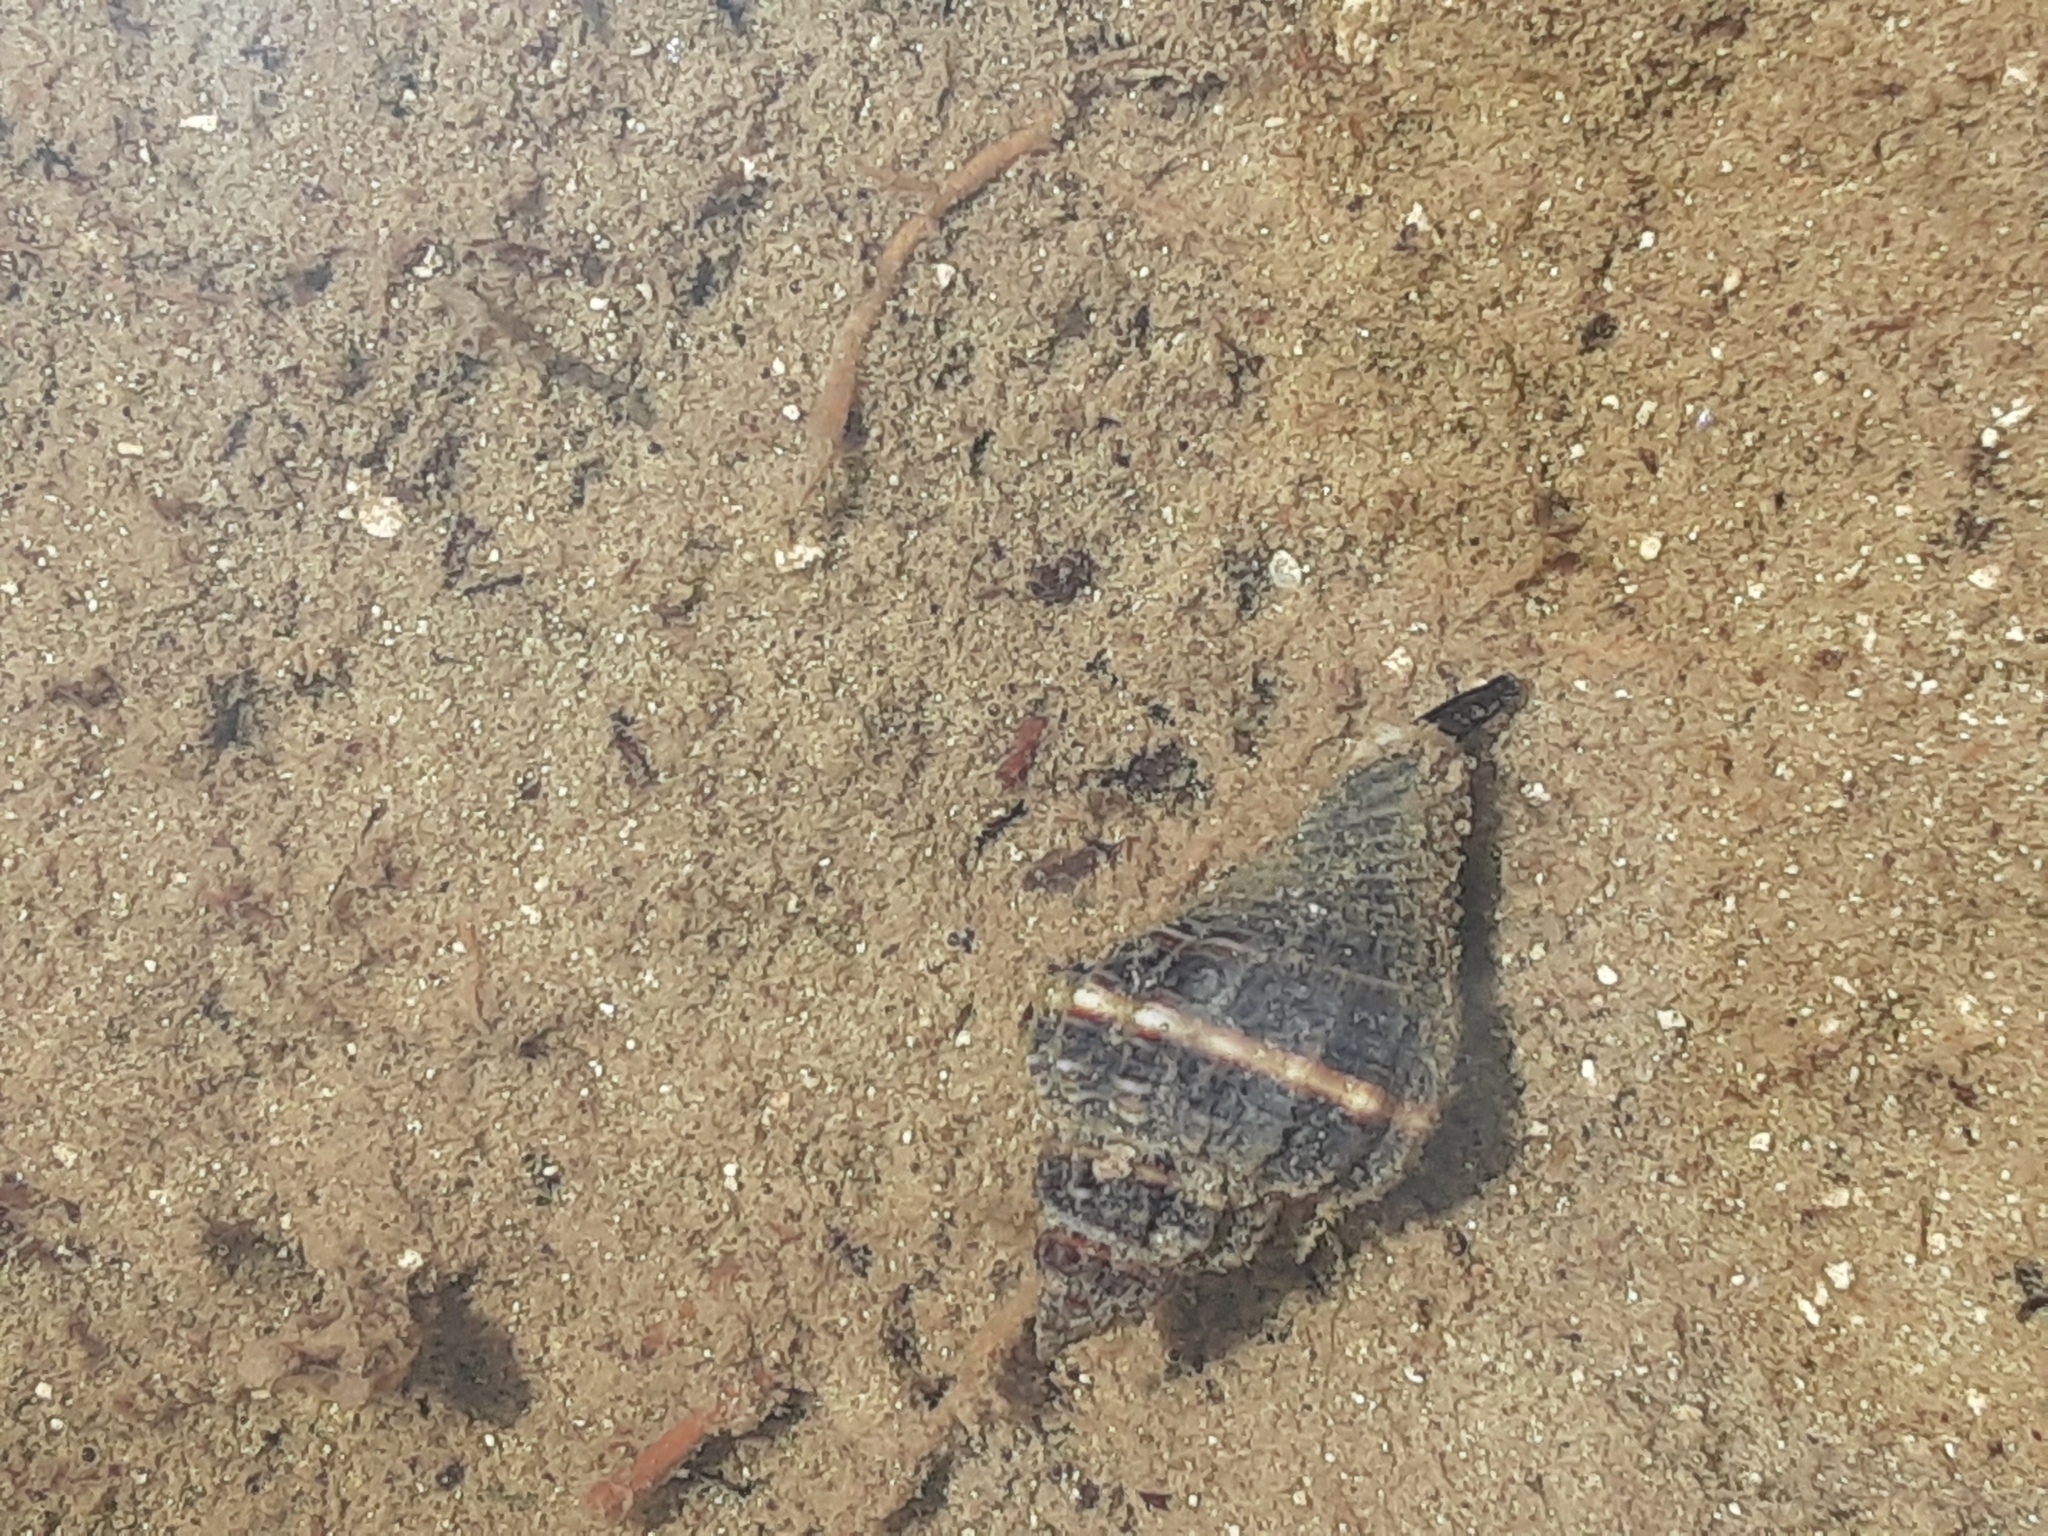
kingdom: Animalia
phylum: Mollusca
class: Gastropoda
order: Neogastropoda
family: Melongenidae
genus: Melongena
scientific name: Melongena corona
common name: American crown conch
